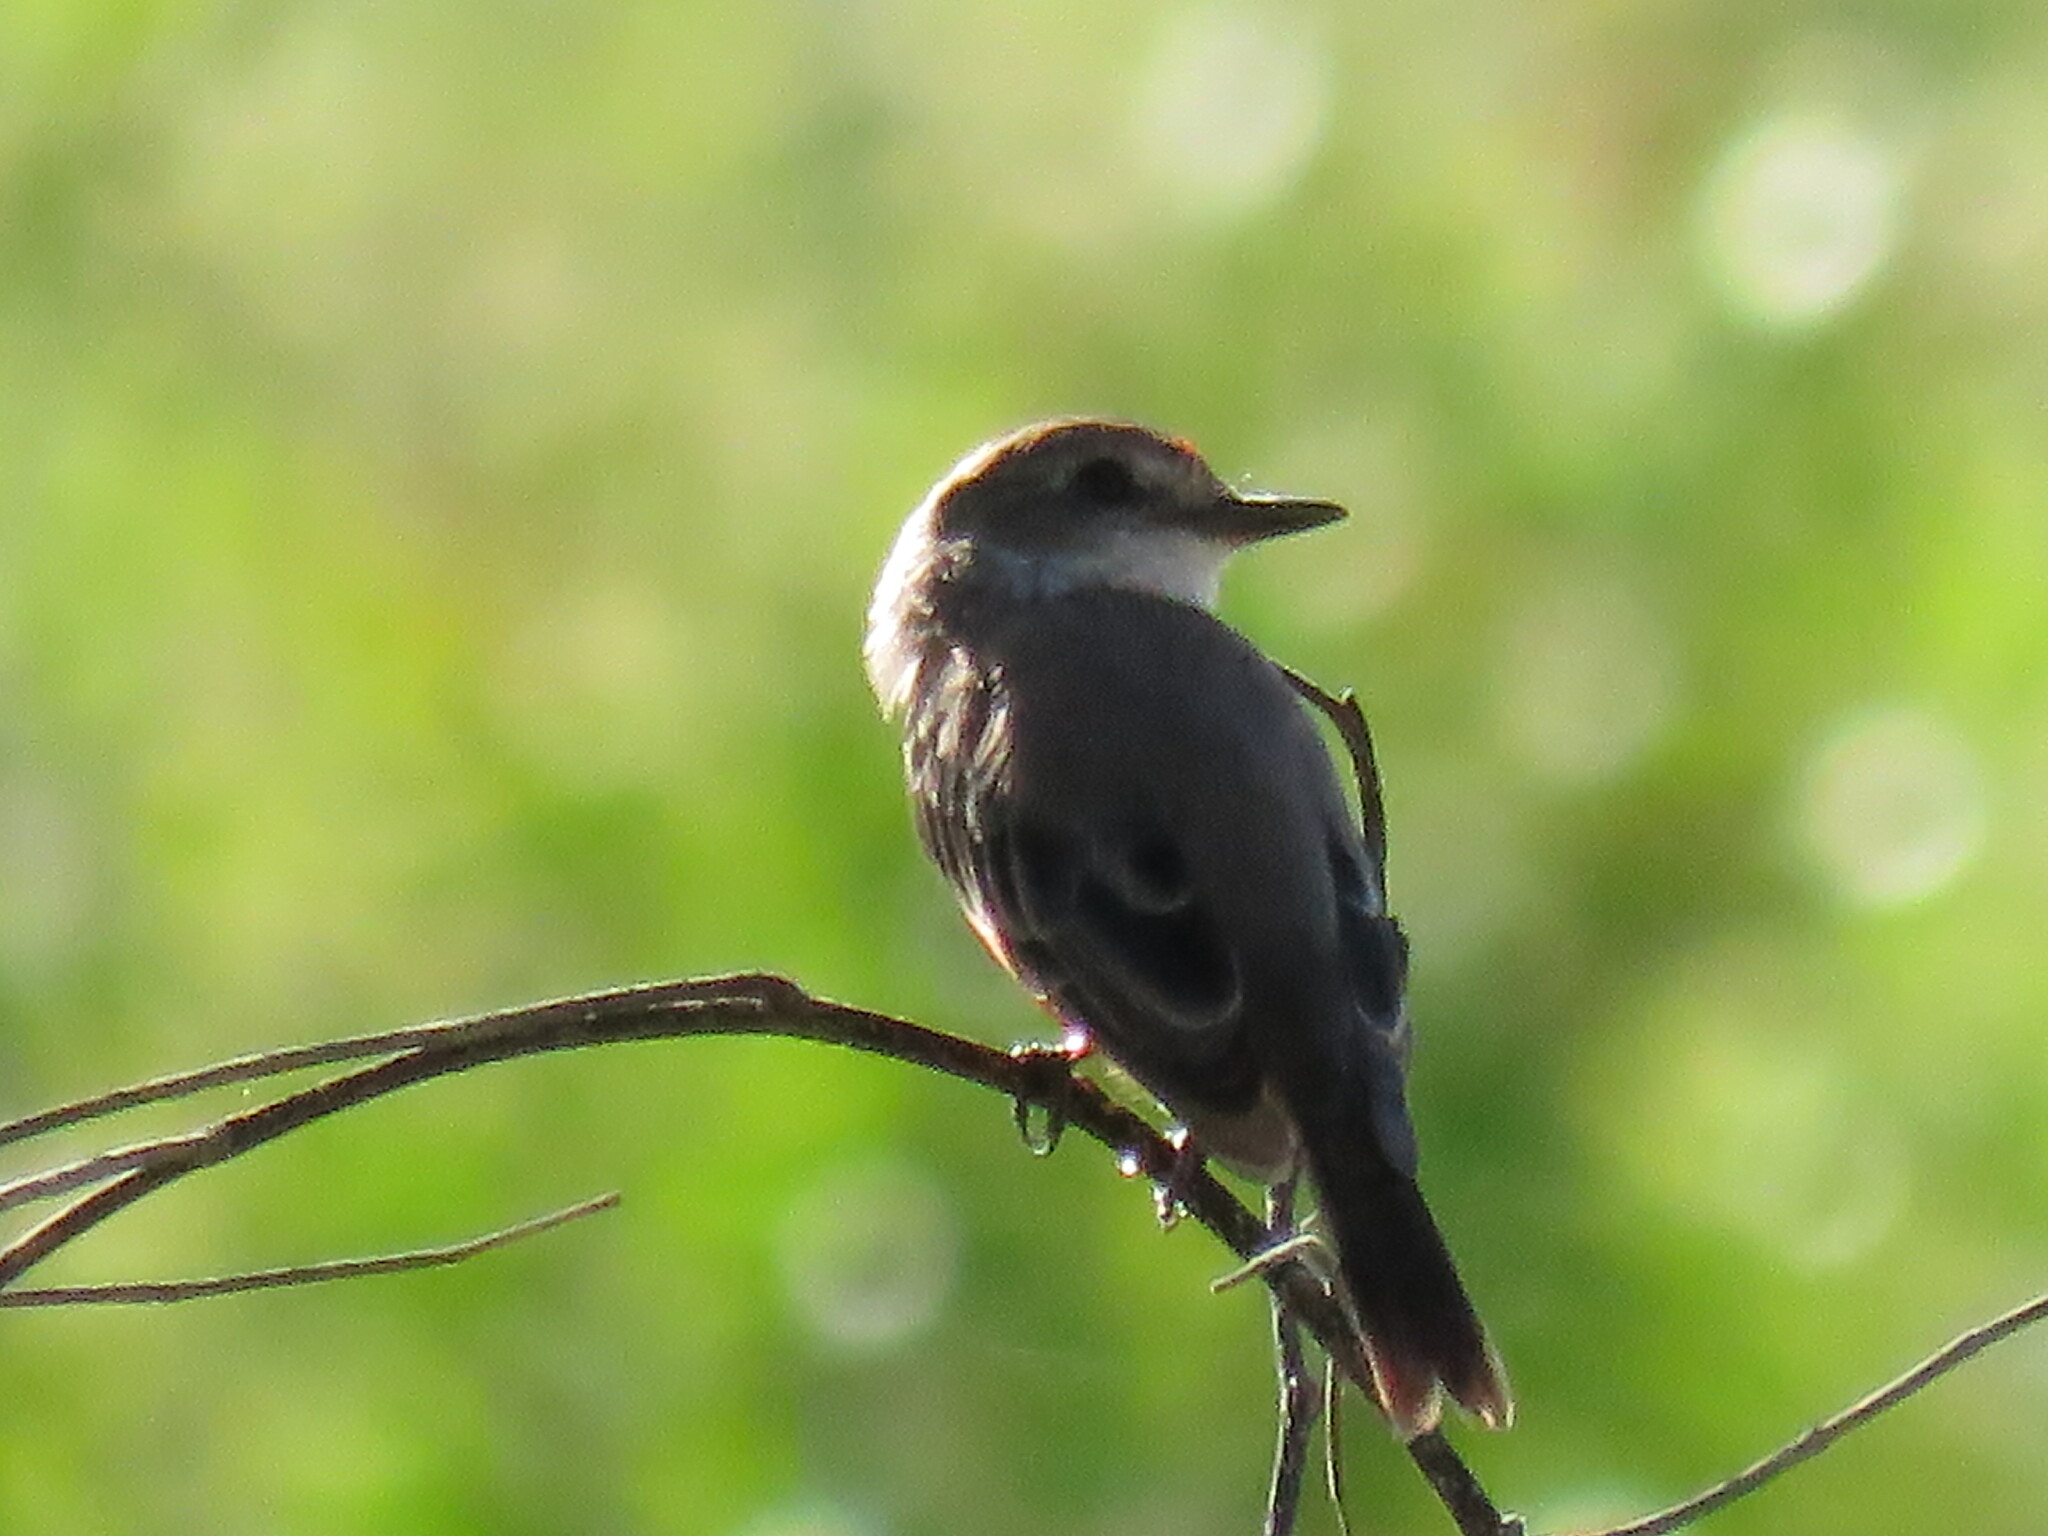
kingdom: Animalia
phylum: Chordata
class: Aves
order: Passeriformes
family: Tyrannidae
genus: Pyrocephalus
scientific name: Pyrocephalus rubinus
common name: Vermilion flycatcher
